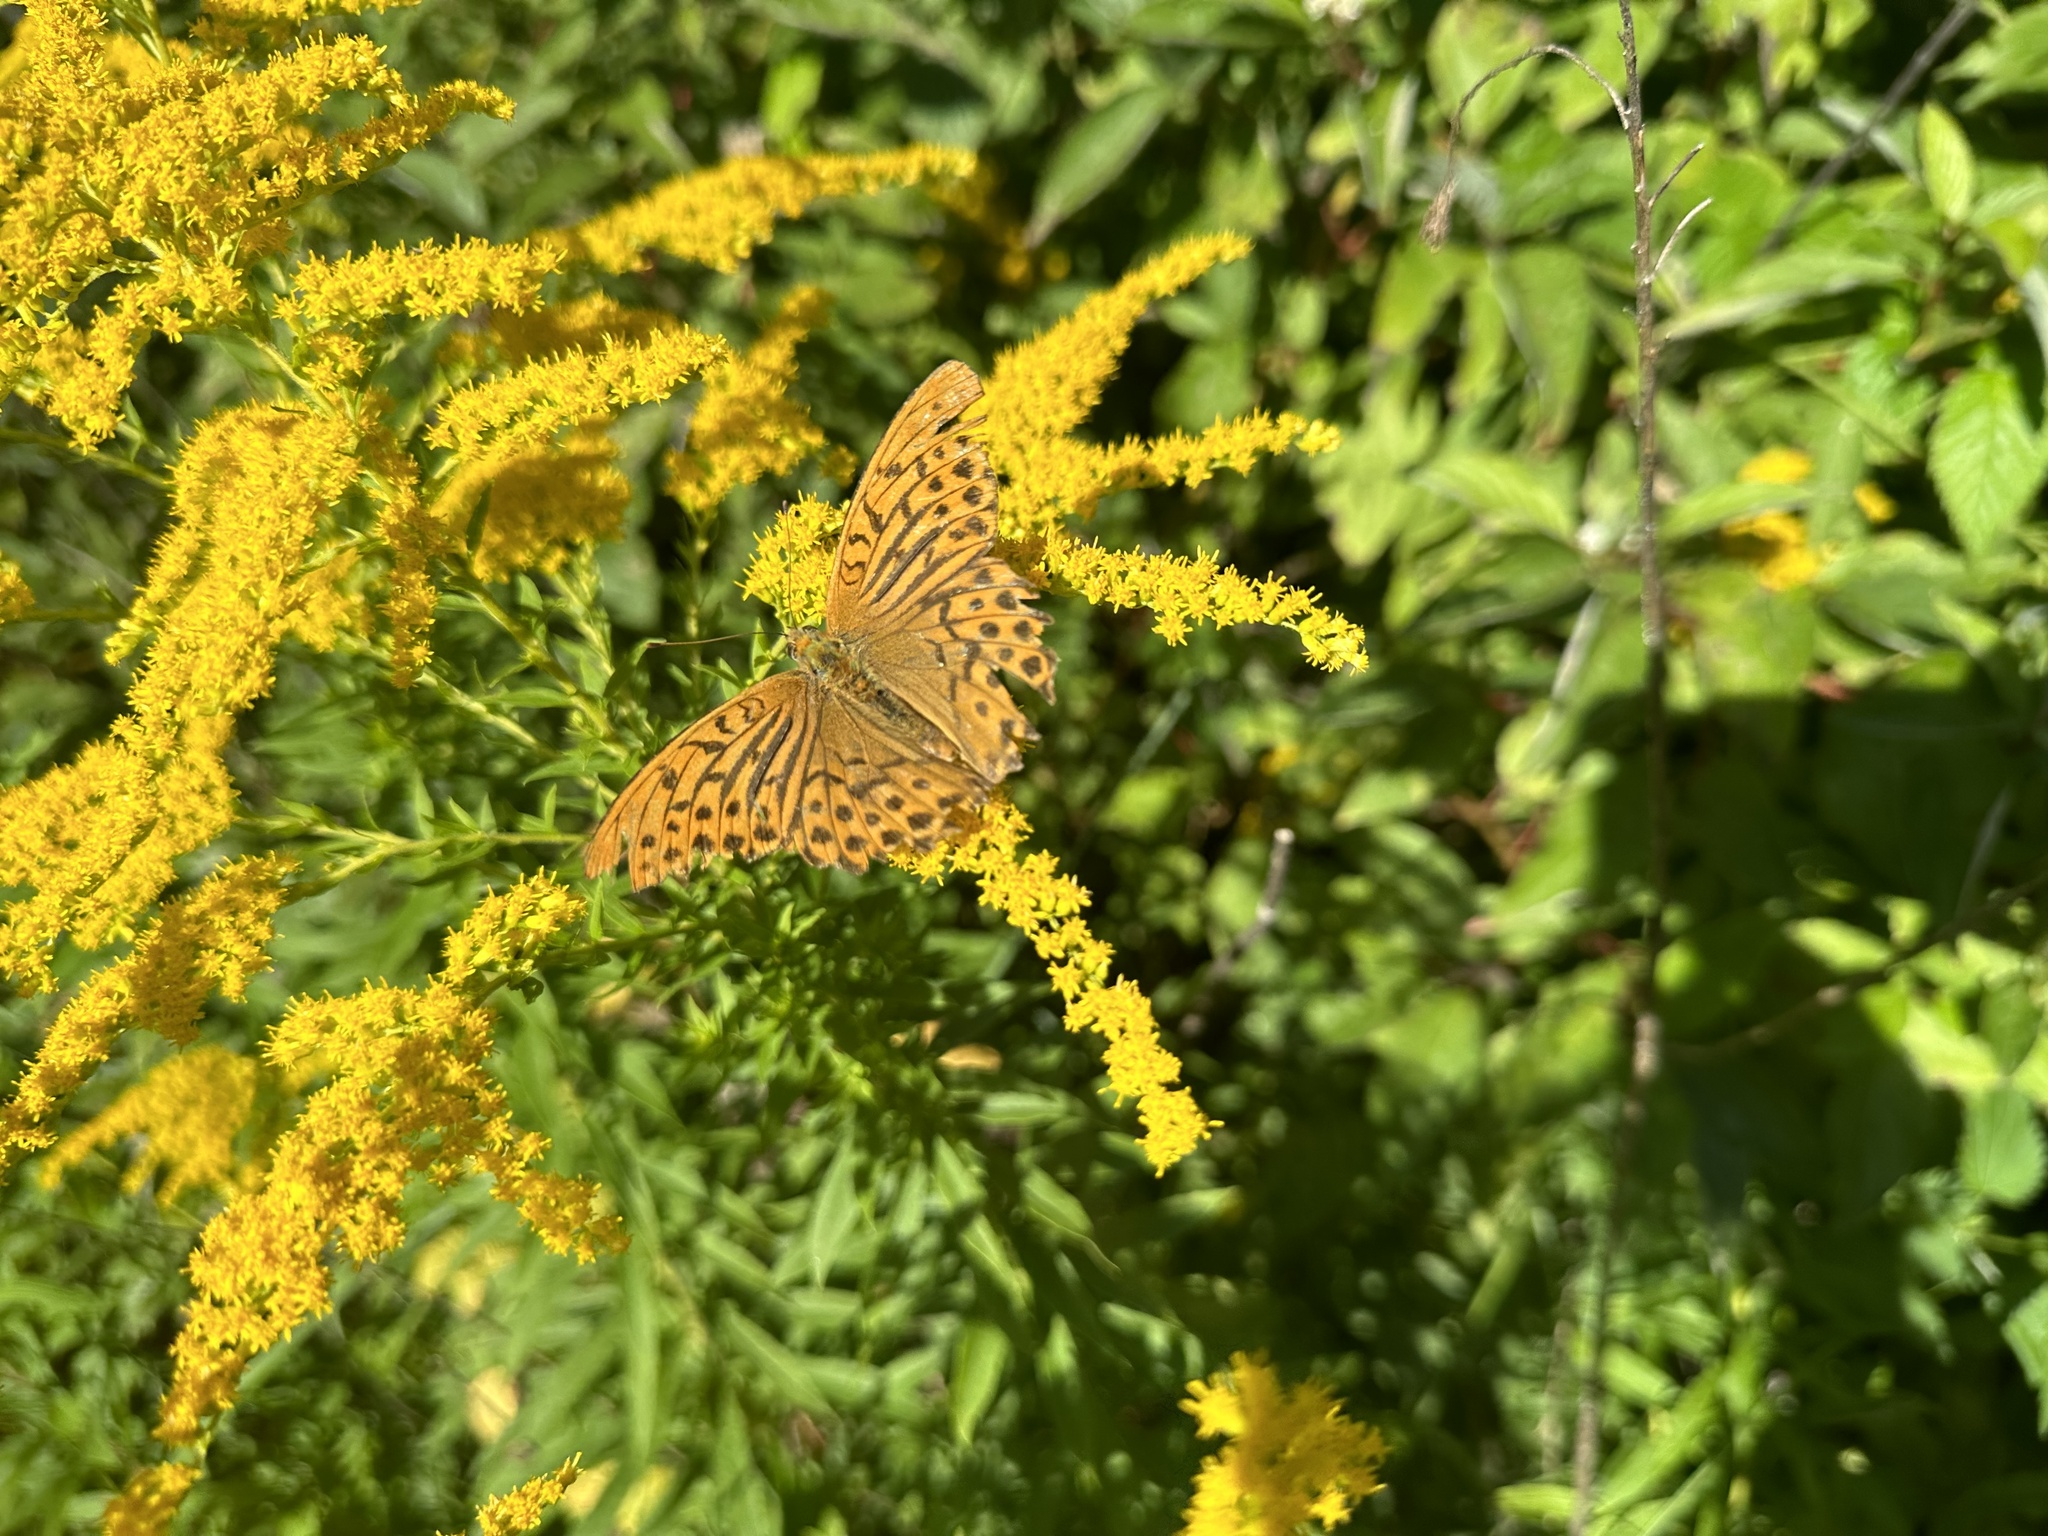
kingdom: Animalia
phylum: Arthropoda
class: Insecta
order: Lepidoptera
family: Nymphalidae
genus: Argynnis
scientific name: Argynnis paphia
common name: Silver-washed fritillary
